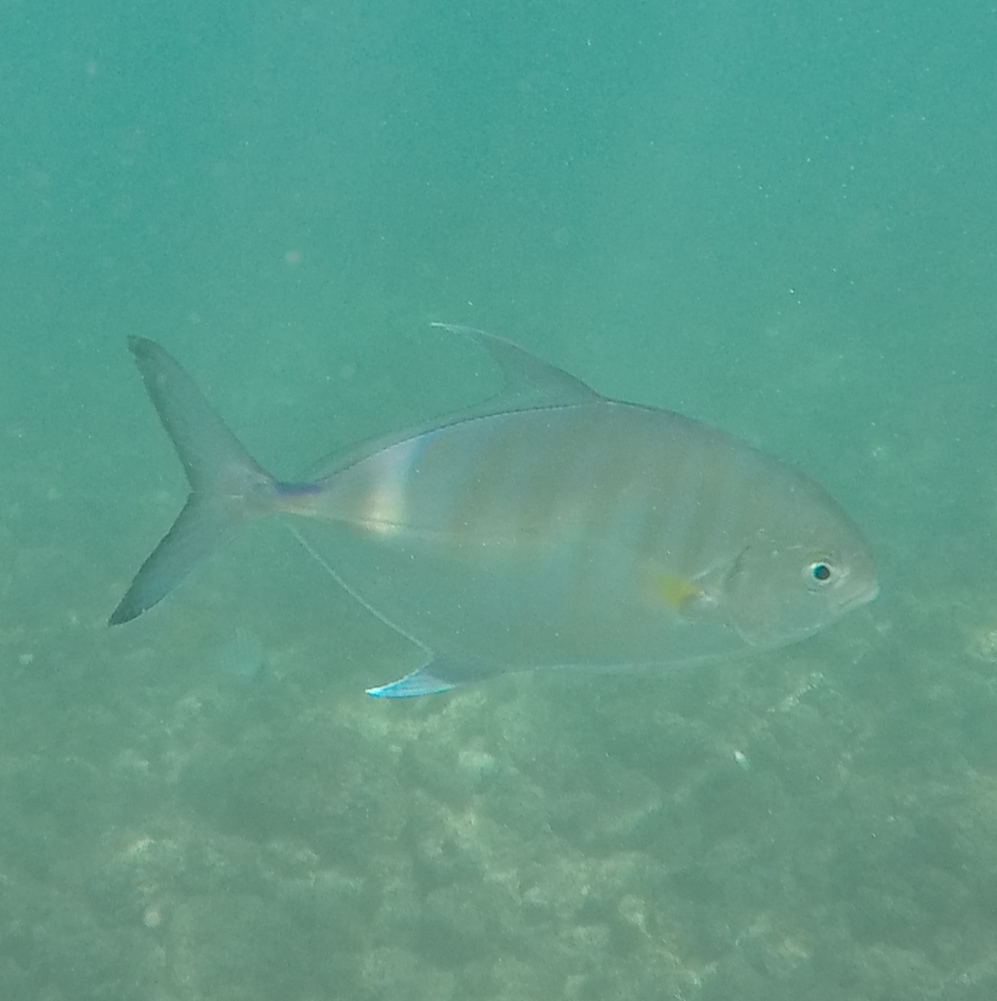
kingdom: Animalia
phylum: Chordata
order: Perciformes
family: Carangidae
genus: Carangoides
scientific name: Carangoides Ferdauia ferdau
